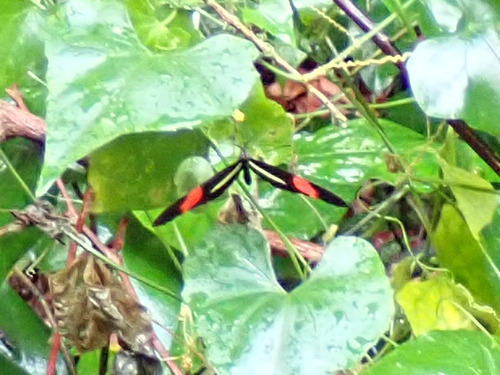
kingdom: Animalia
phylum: Arthropoda
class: Insecta
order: Lepidoptera
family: Nymphalidae
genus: Tirumala
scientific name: Tirumala petiverana
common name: Blue monarch
